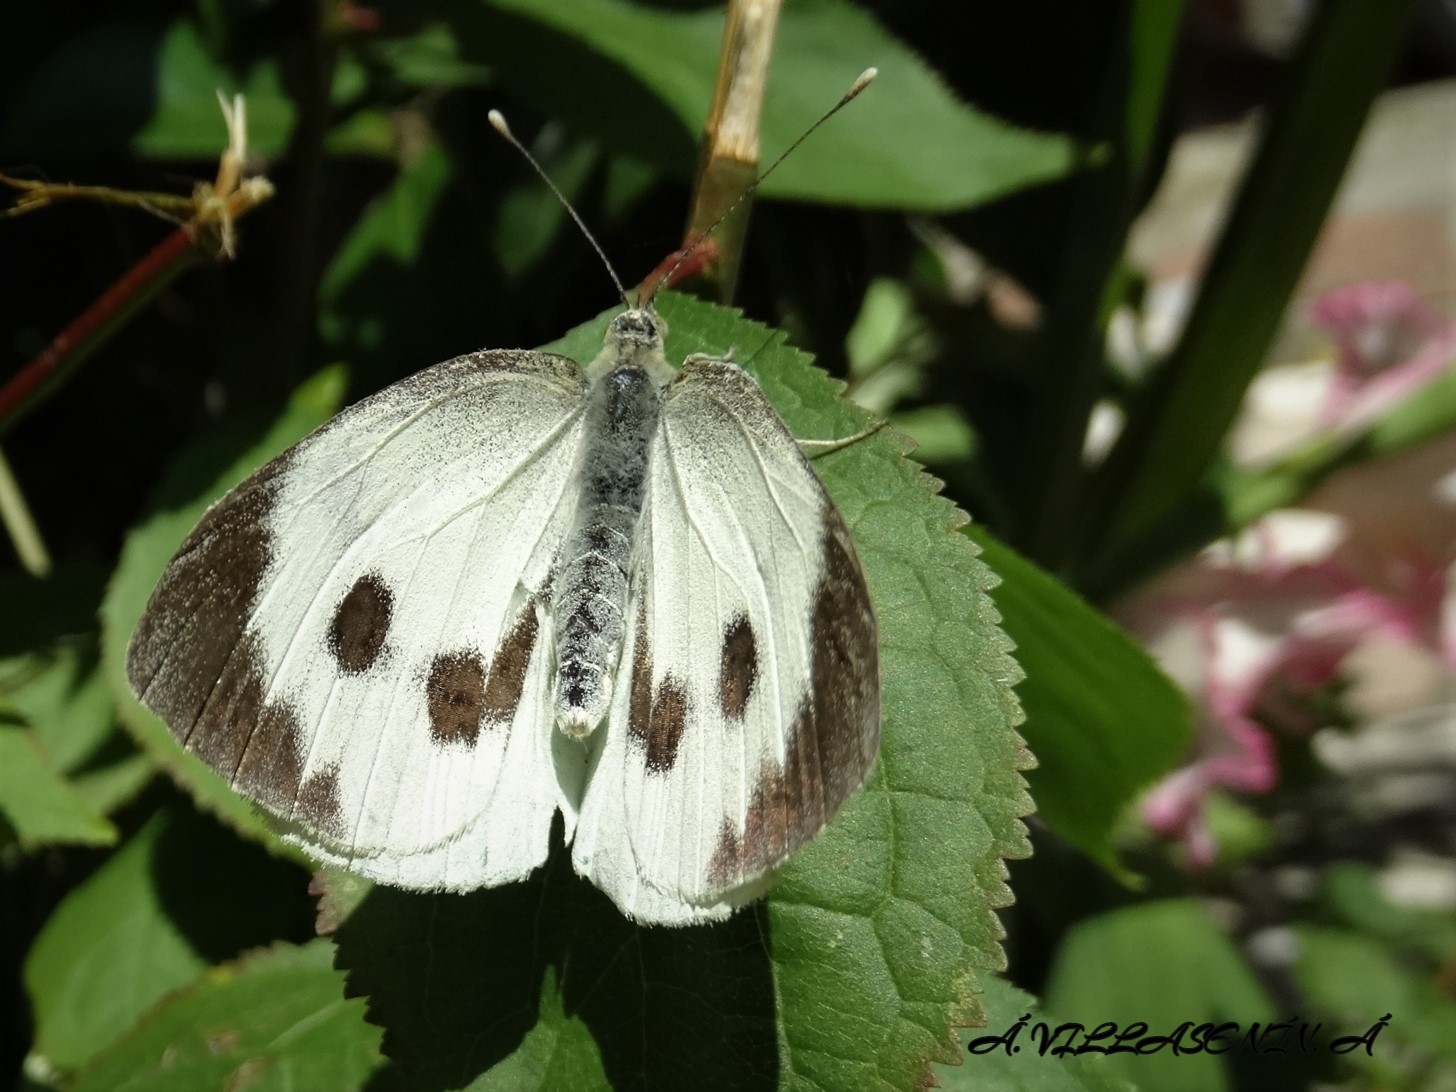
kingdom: Animalia
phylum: Arthropoda
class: Insecta
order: Lepidoptera
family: Pieridae
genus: Pieris
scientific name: Pieris brassicae
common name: Large white
